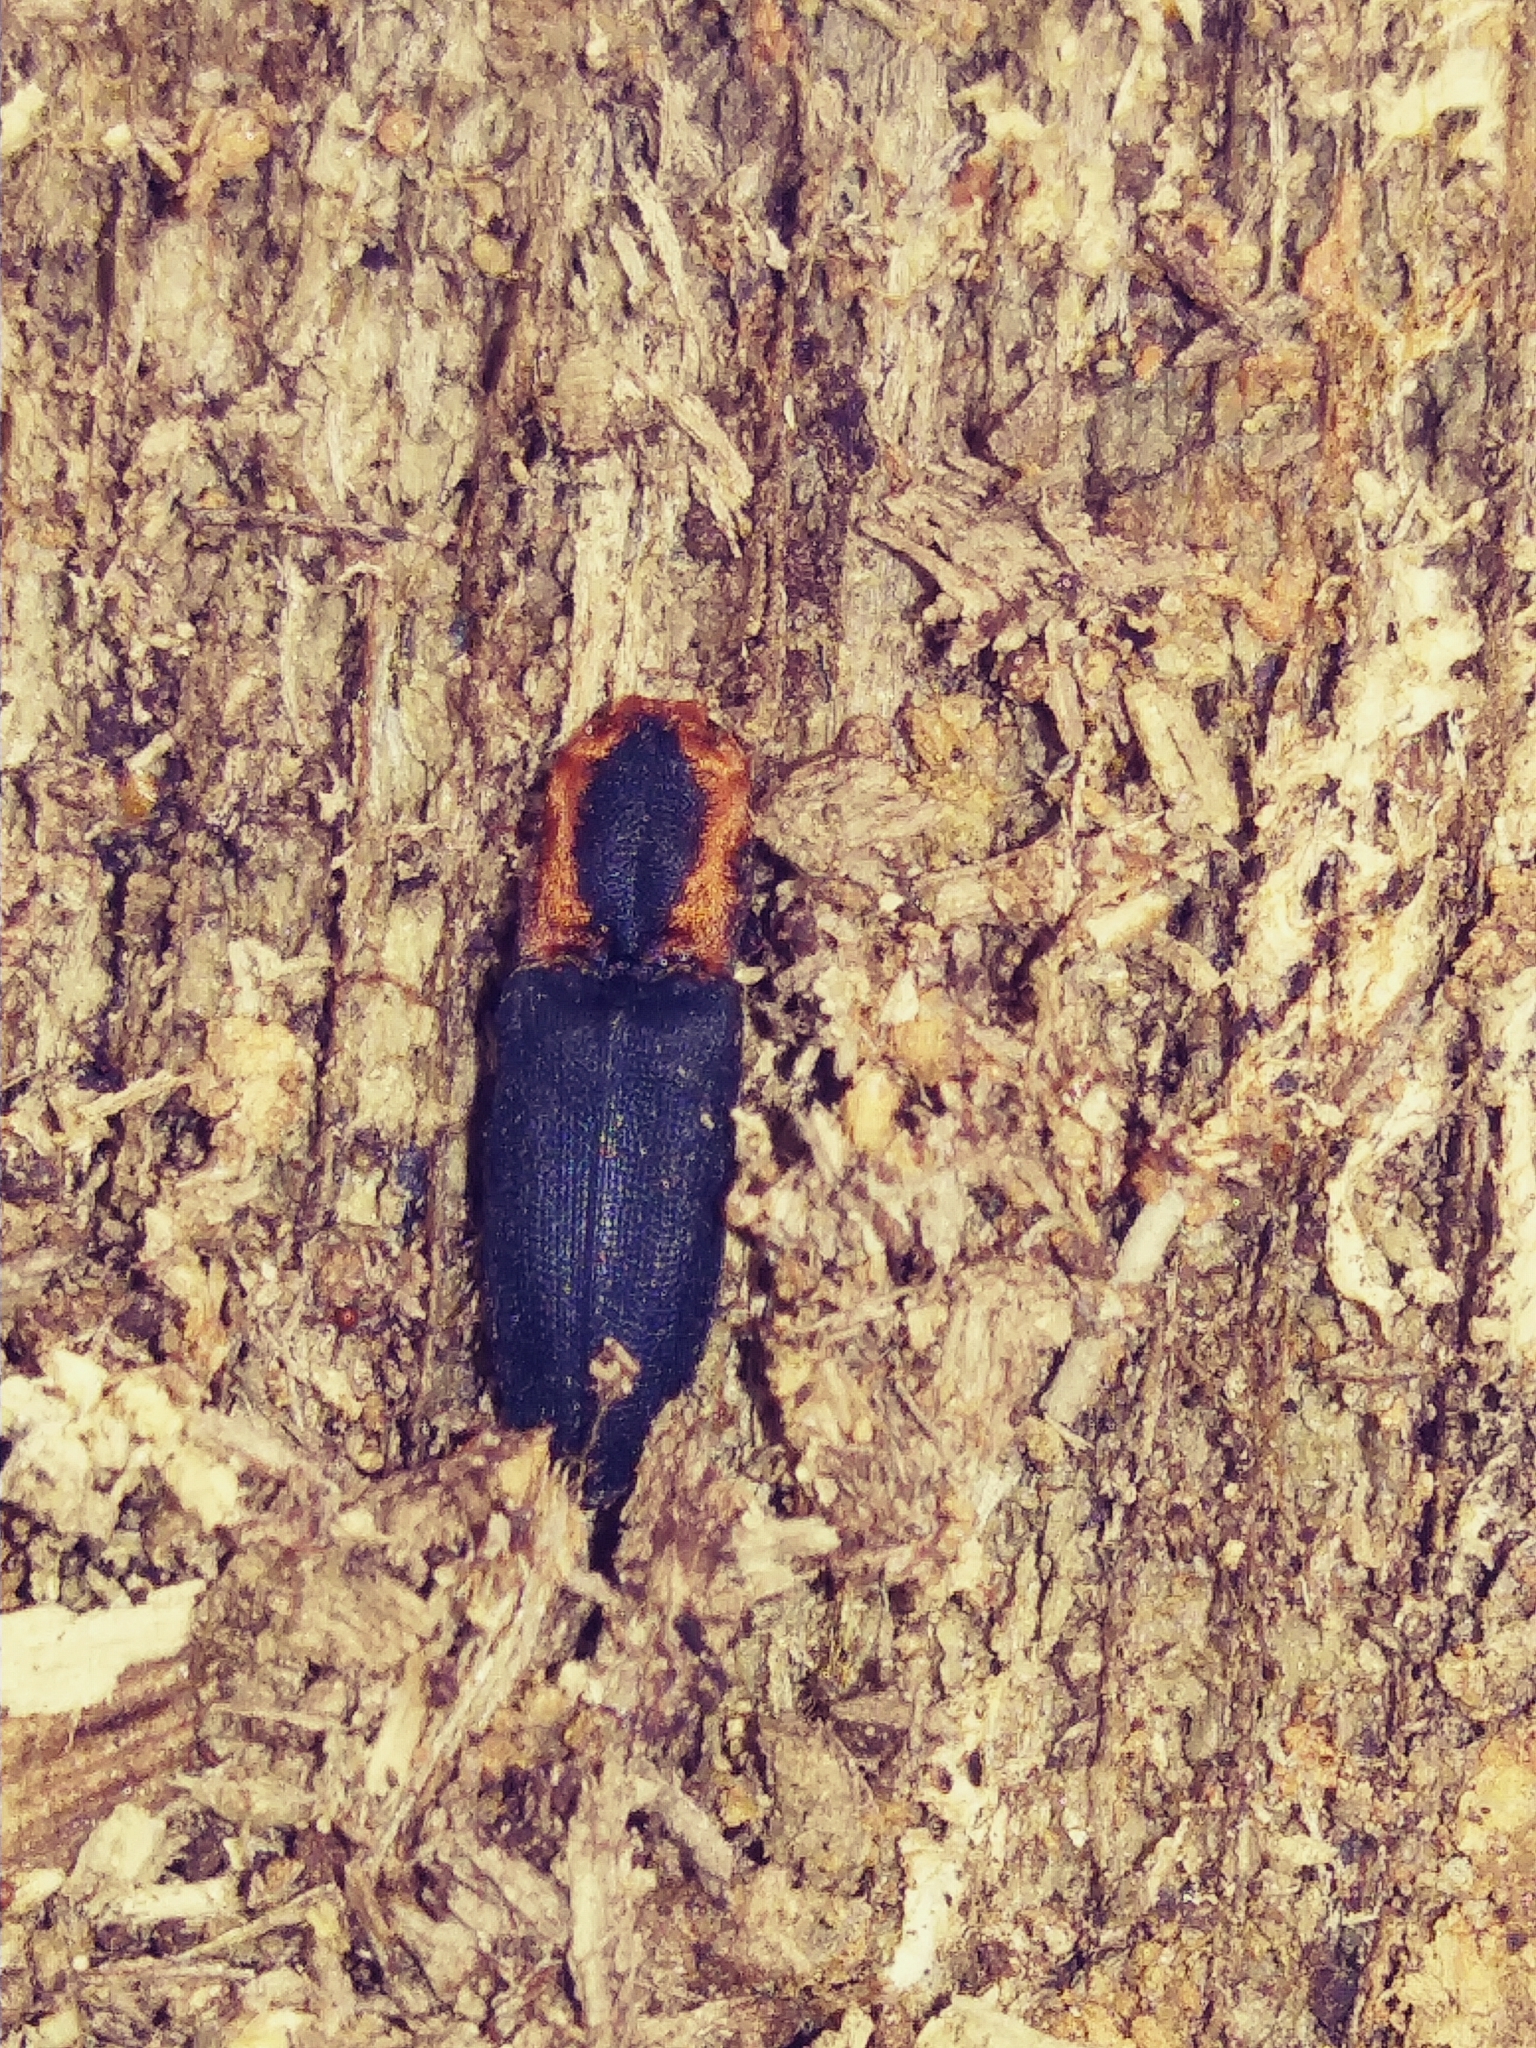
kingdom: Animalia
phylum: Arthropoda
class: Insecta
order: Coleoptera
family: Elateridae
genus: Lacon
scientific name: Lacon discoideus
